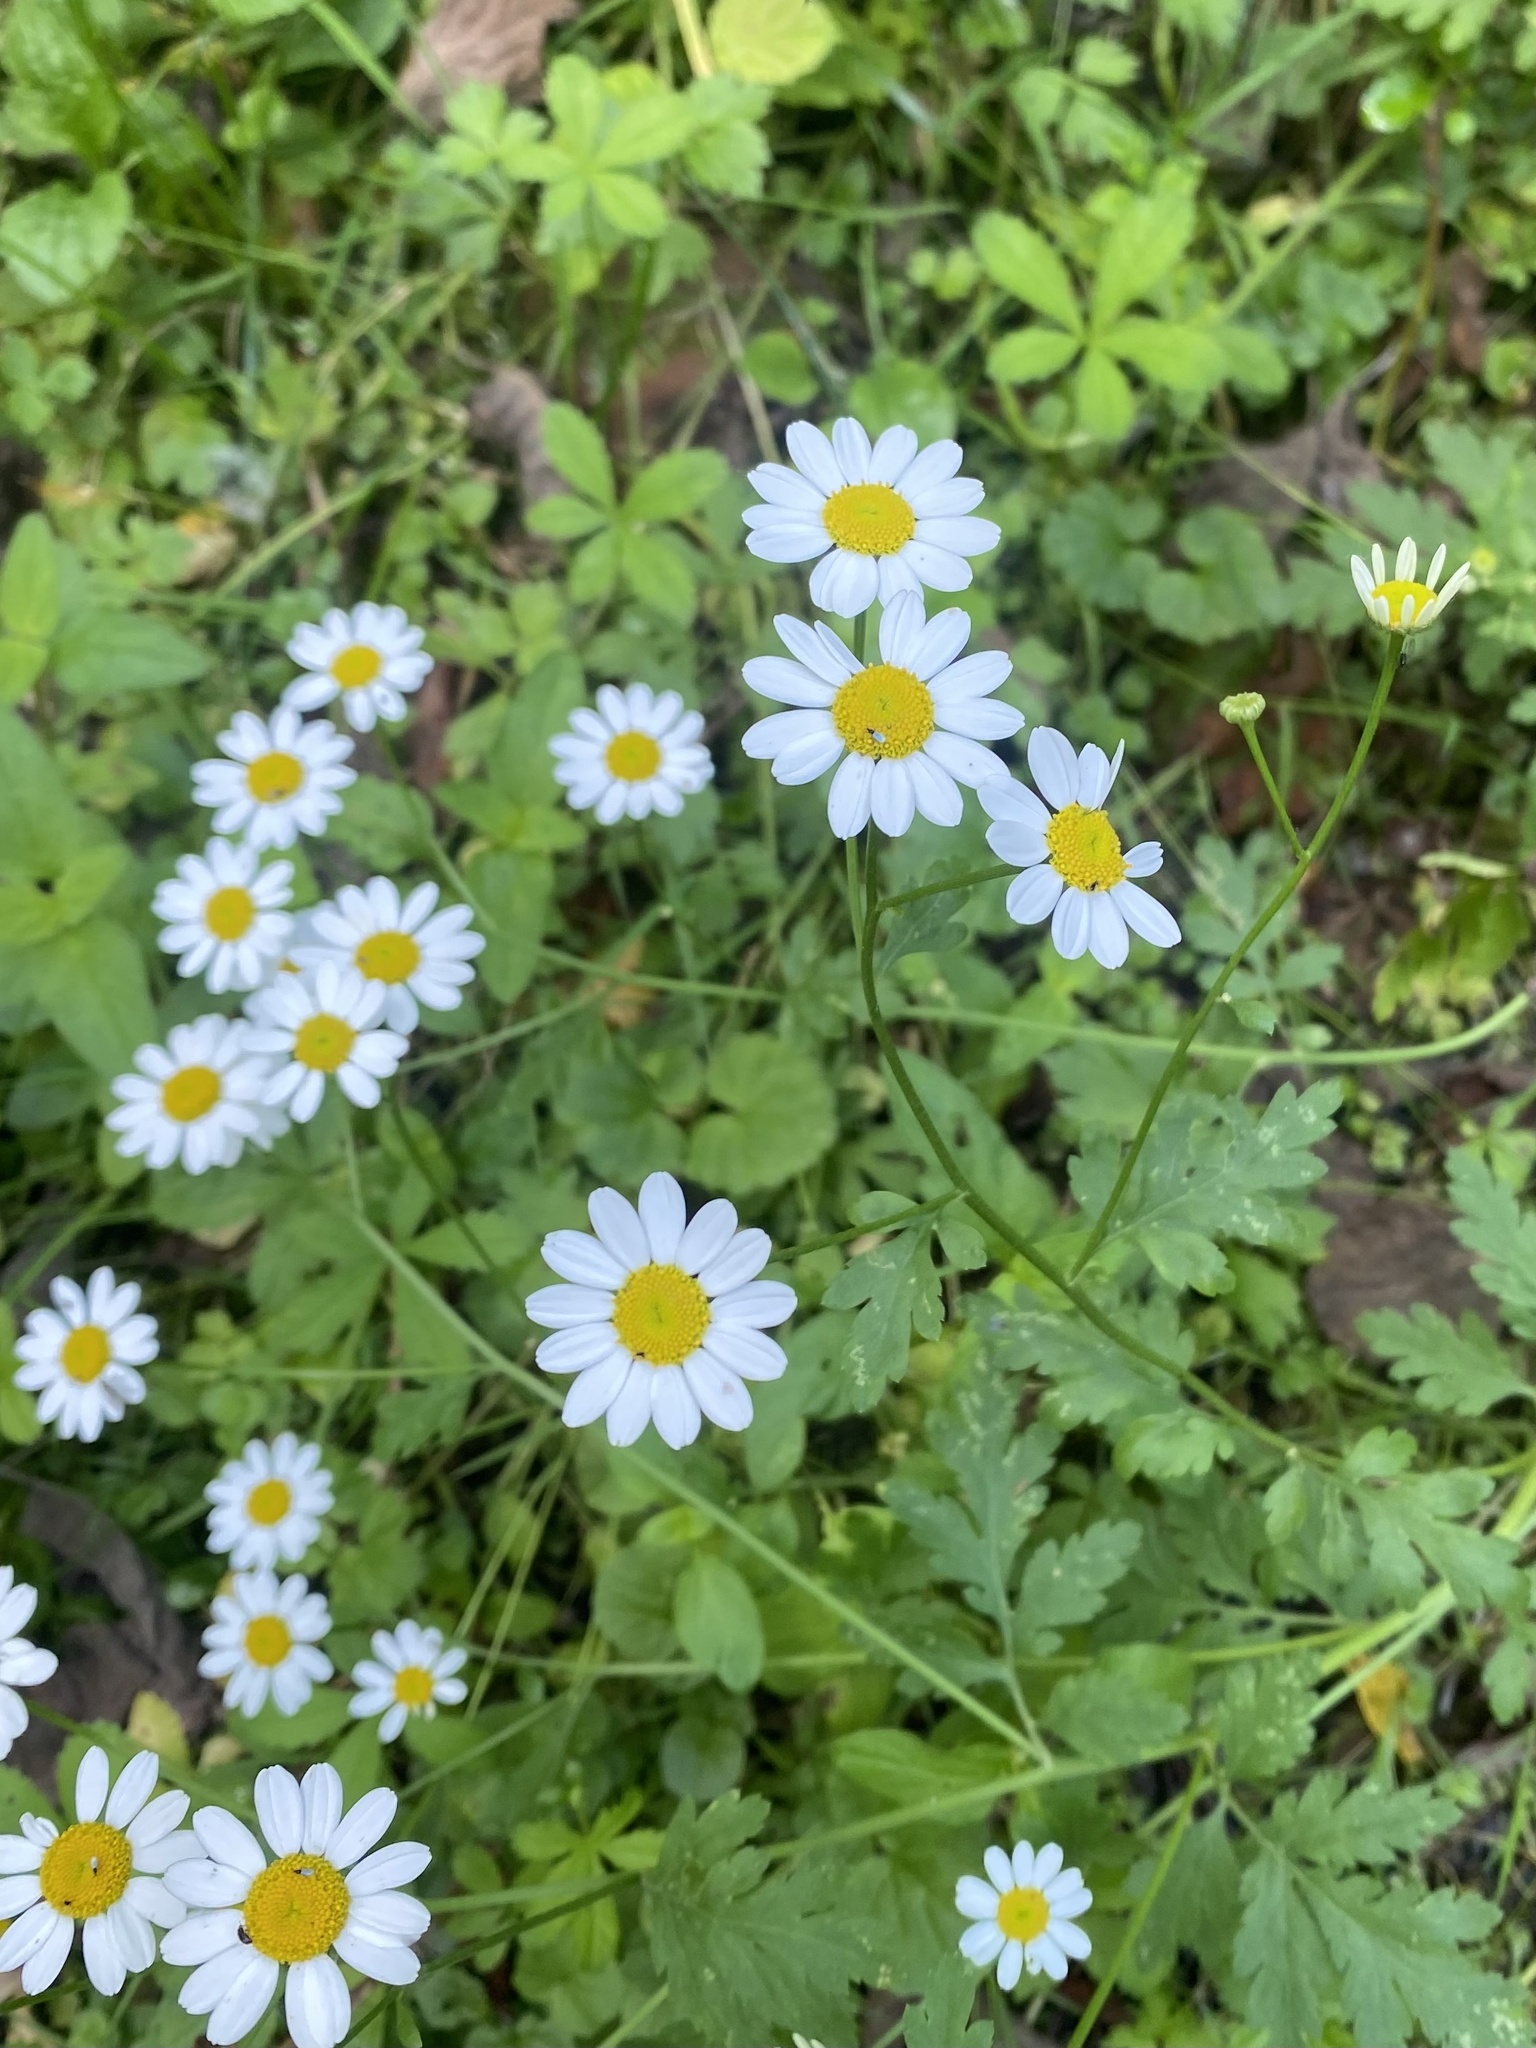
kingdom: Plantae
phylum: Tracheophyta
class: Magnoliopsida
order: Asterales
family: Asteraceae
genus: Tanacetum
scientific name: Tanacetum partheniifolium
